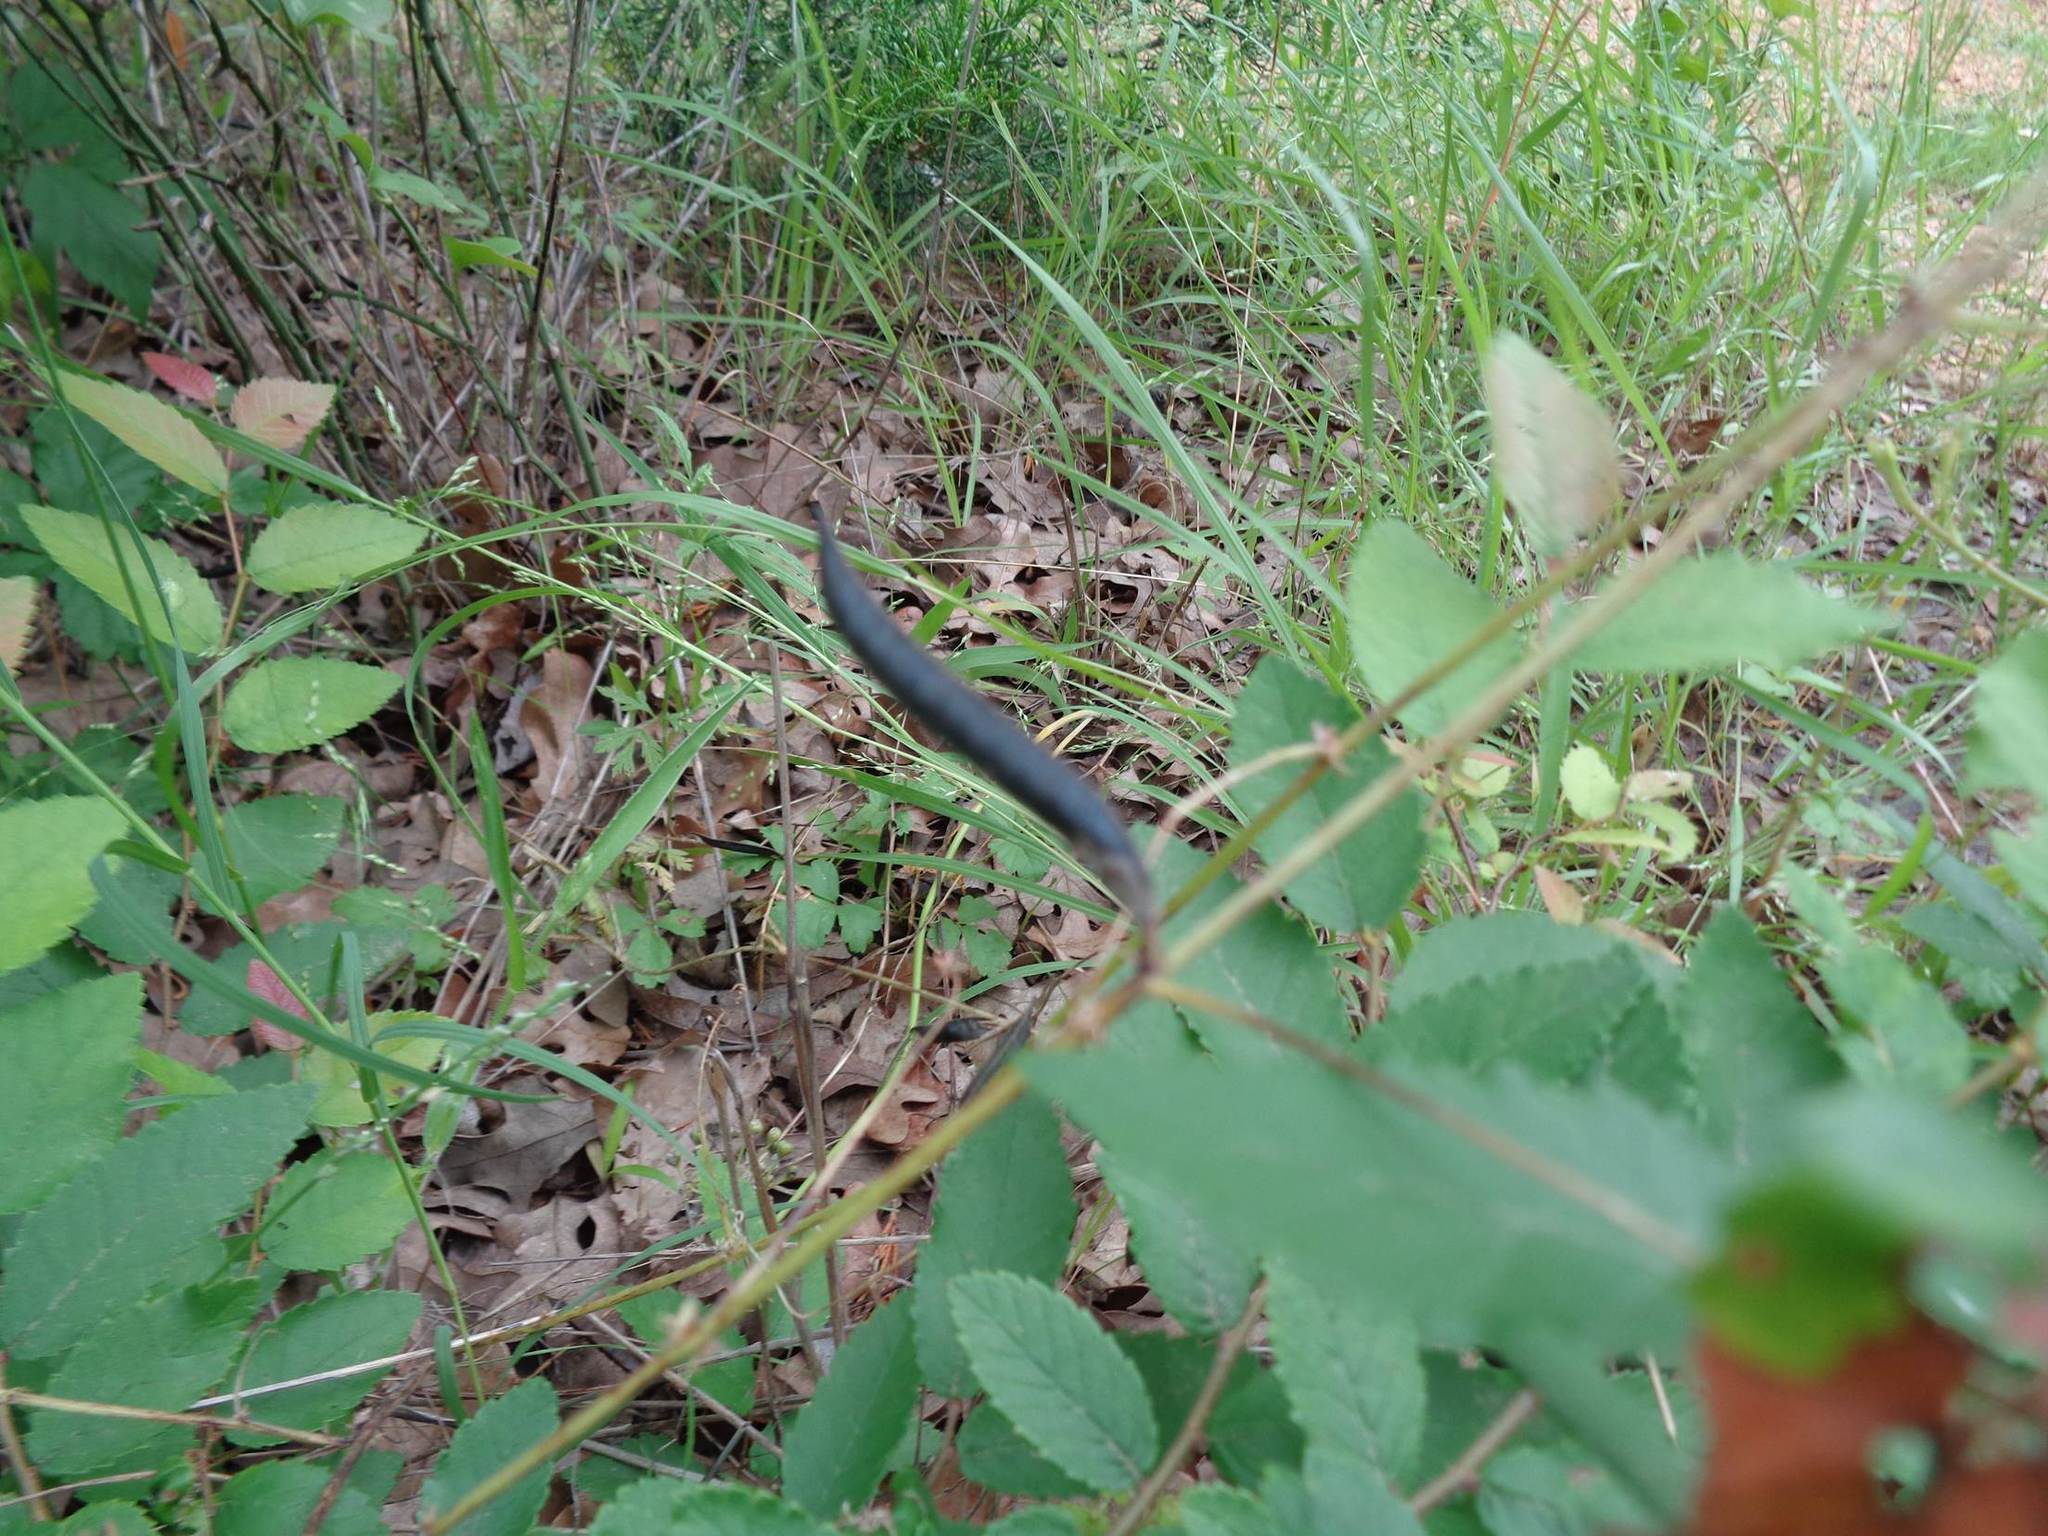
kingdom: Plantae
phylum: Tracheophyta
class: Magnoliopsida
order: Fabales
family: Fabaceae
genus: Vicia
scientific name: Vicia sativa
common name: Garden vetch
